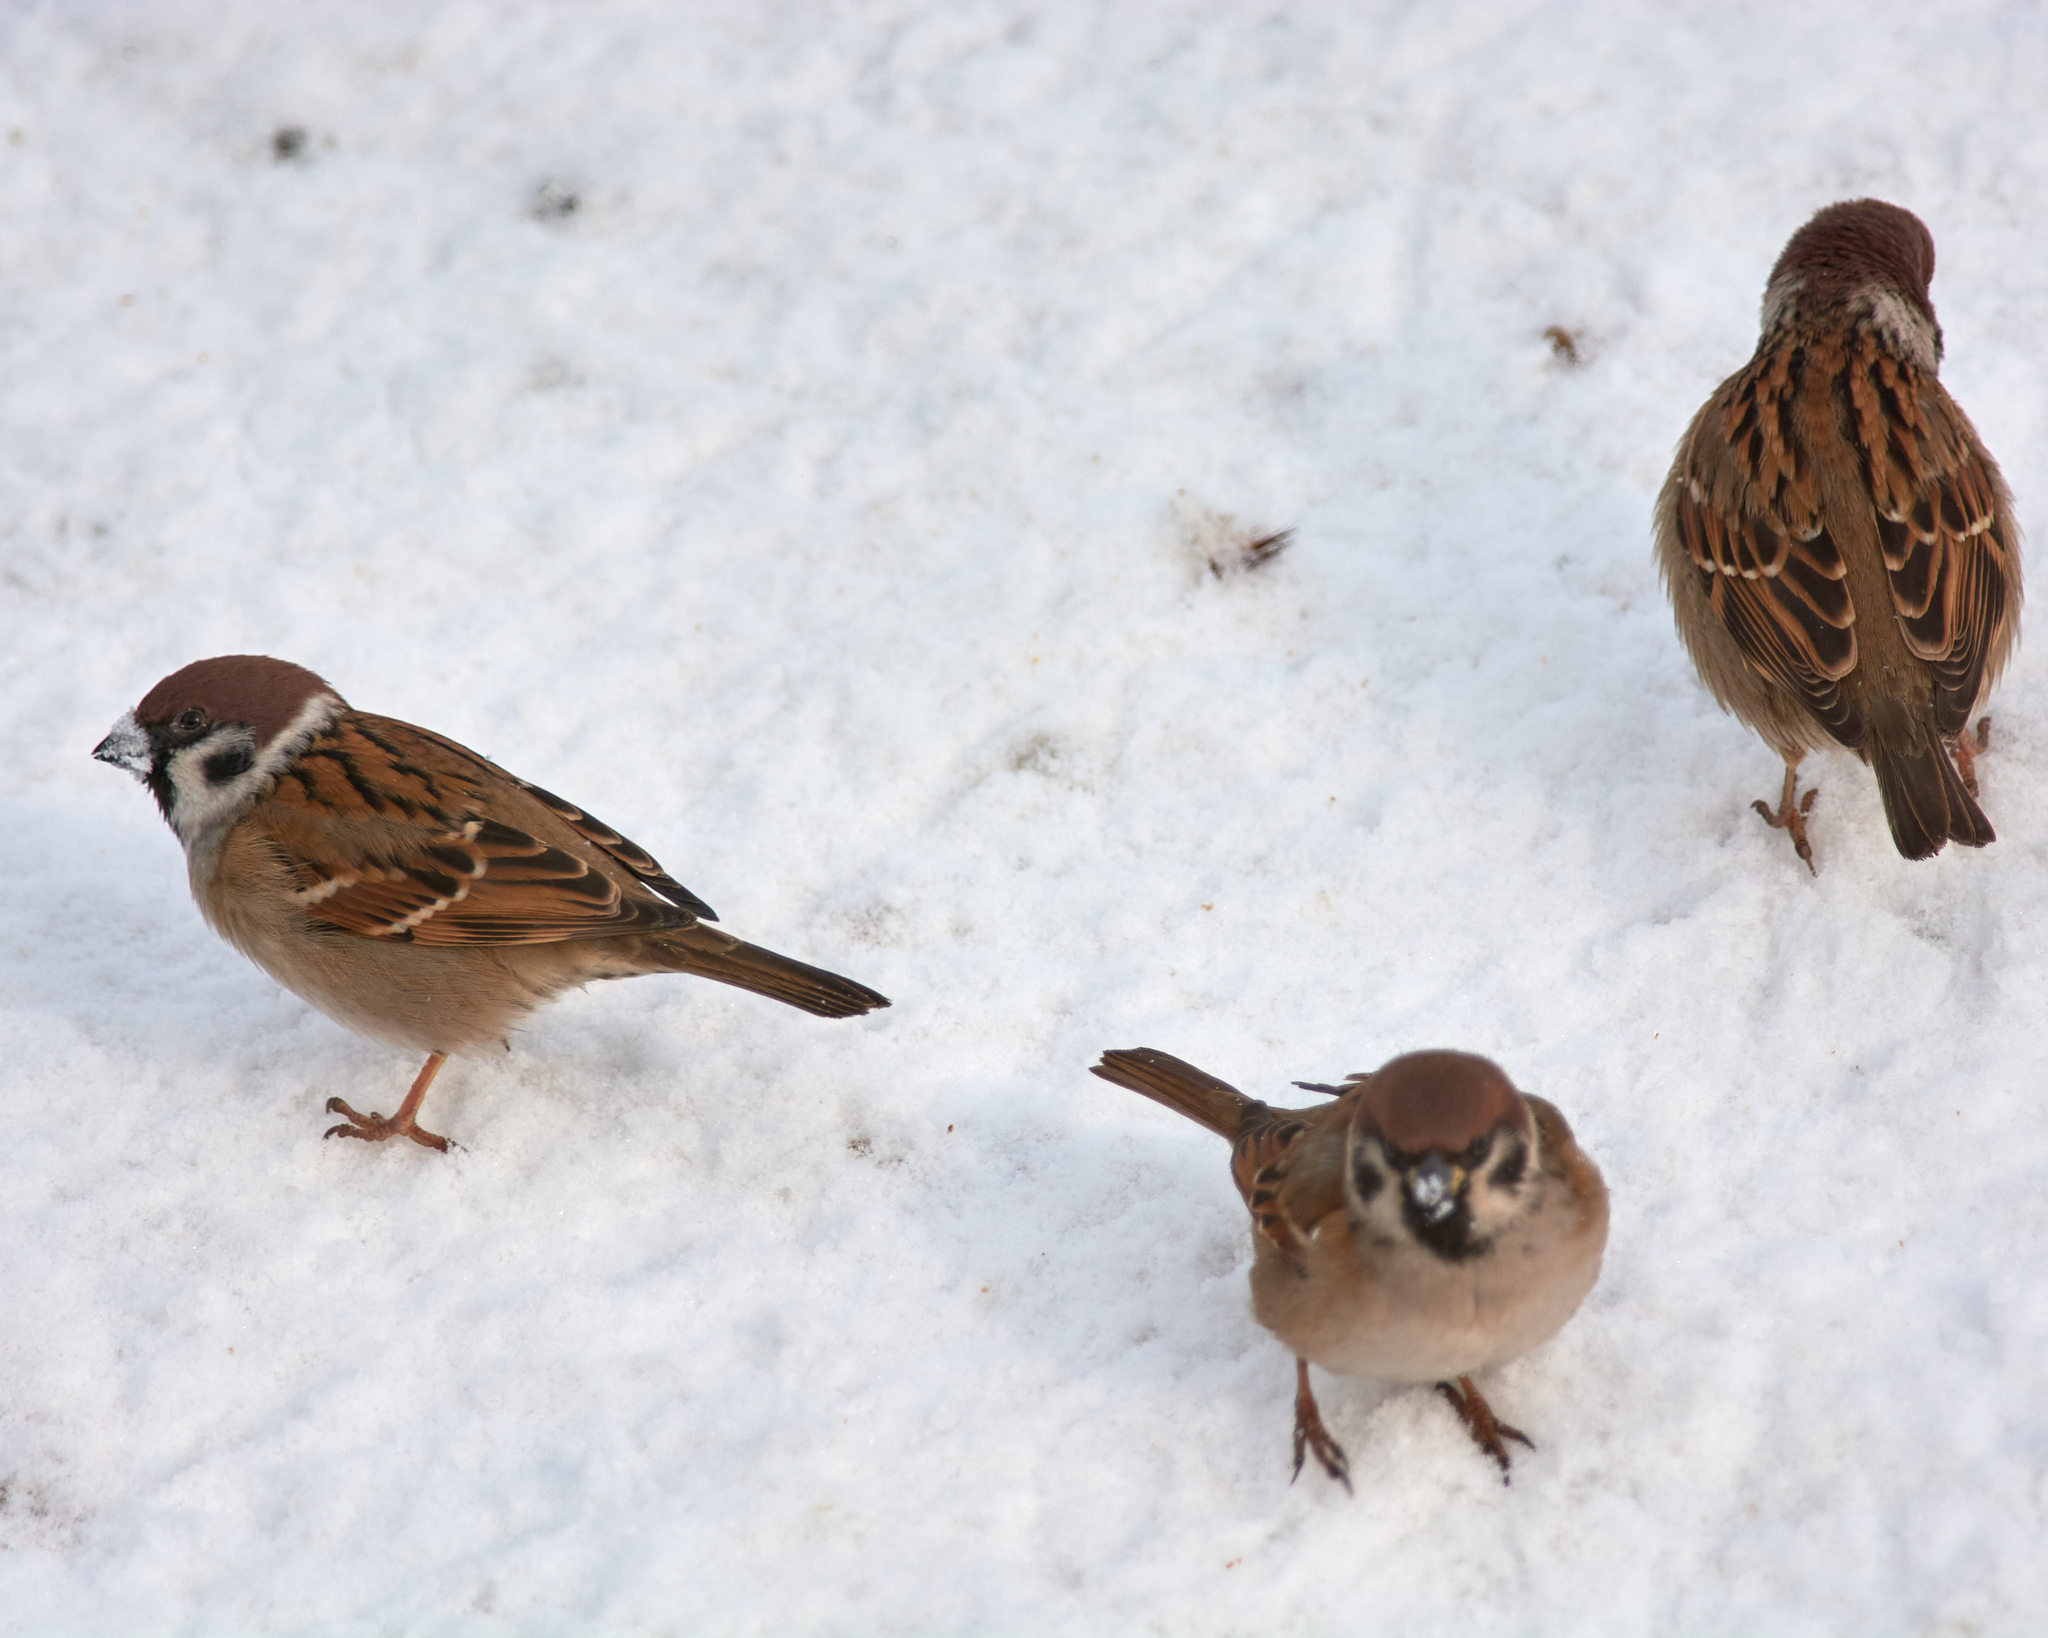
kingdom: Animalia
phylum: Chordata
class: Aves
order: Passeriformes
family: Passeridae
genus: Passer
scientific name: Passer montanus
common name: Eurasian tree sparrow
